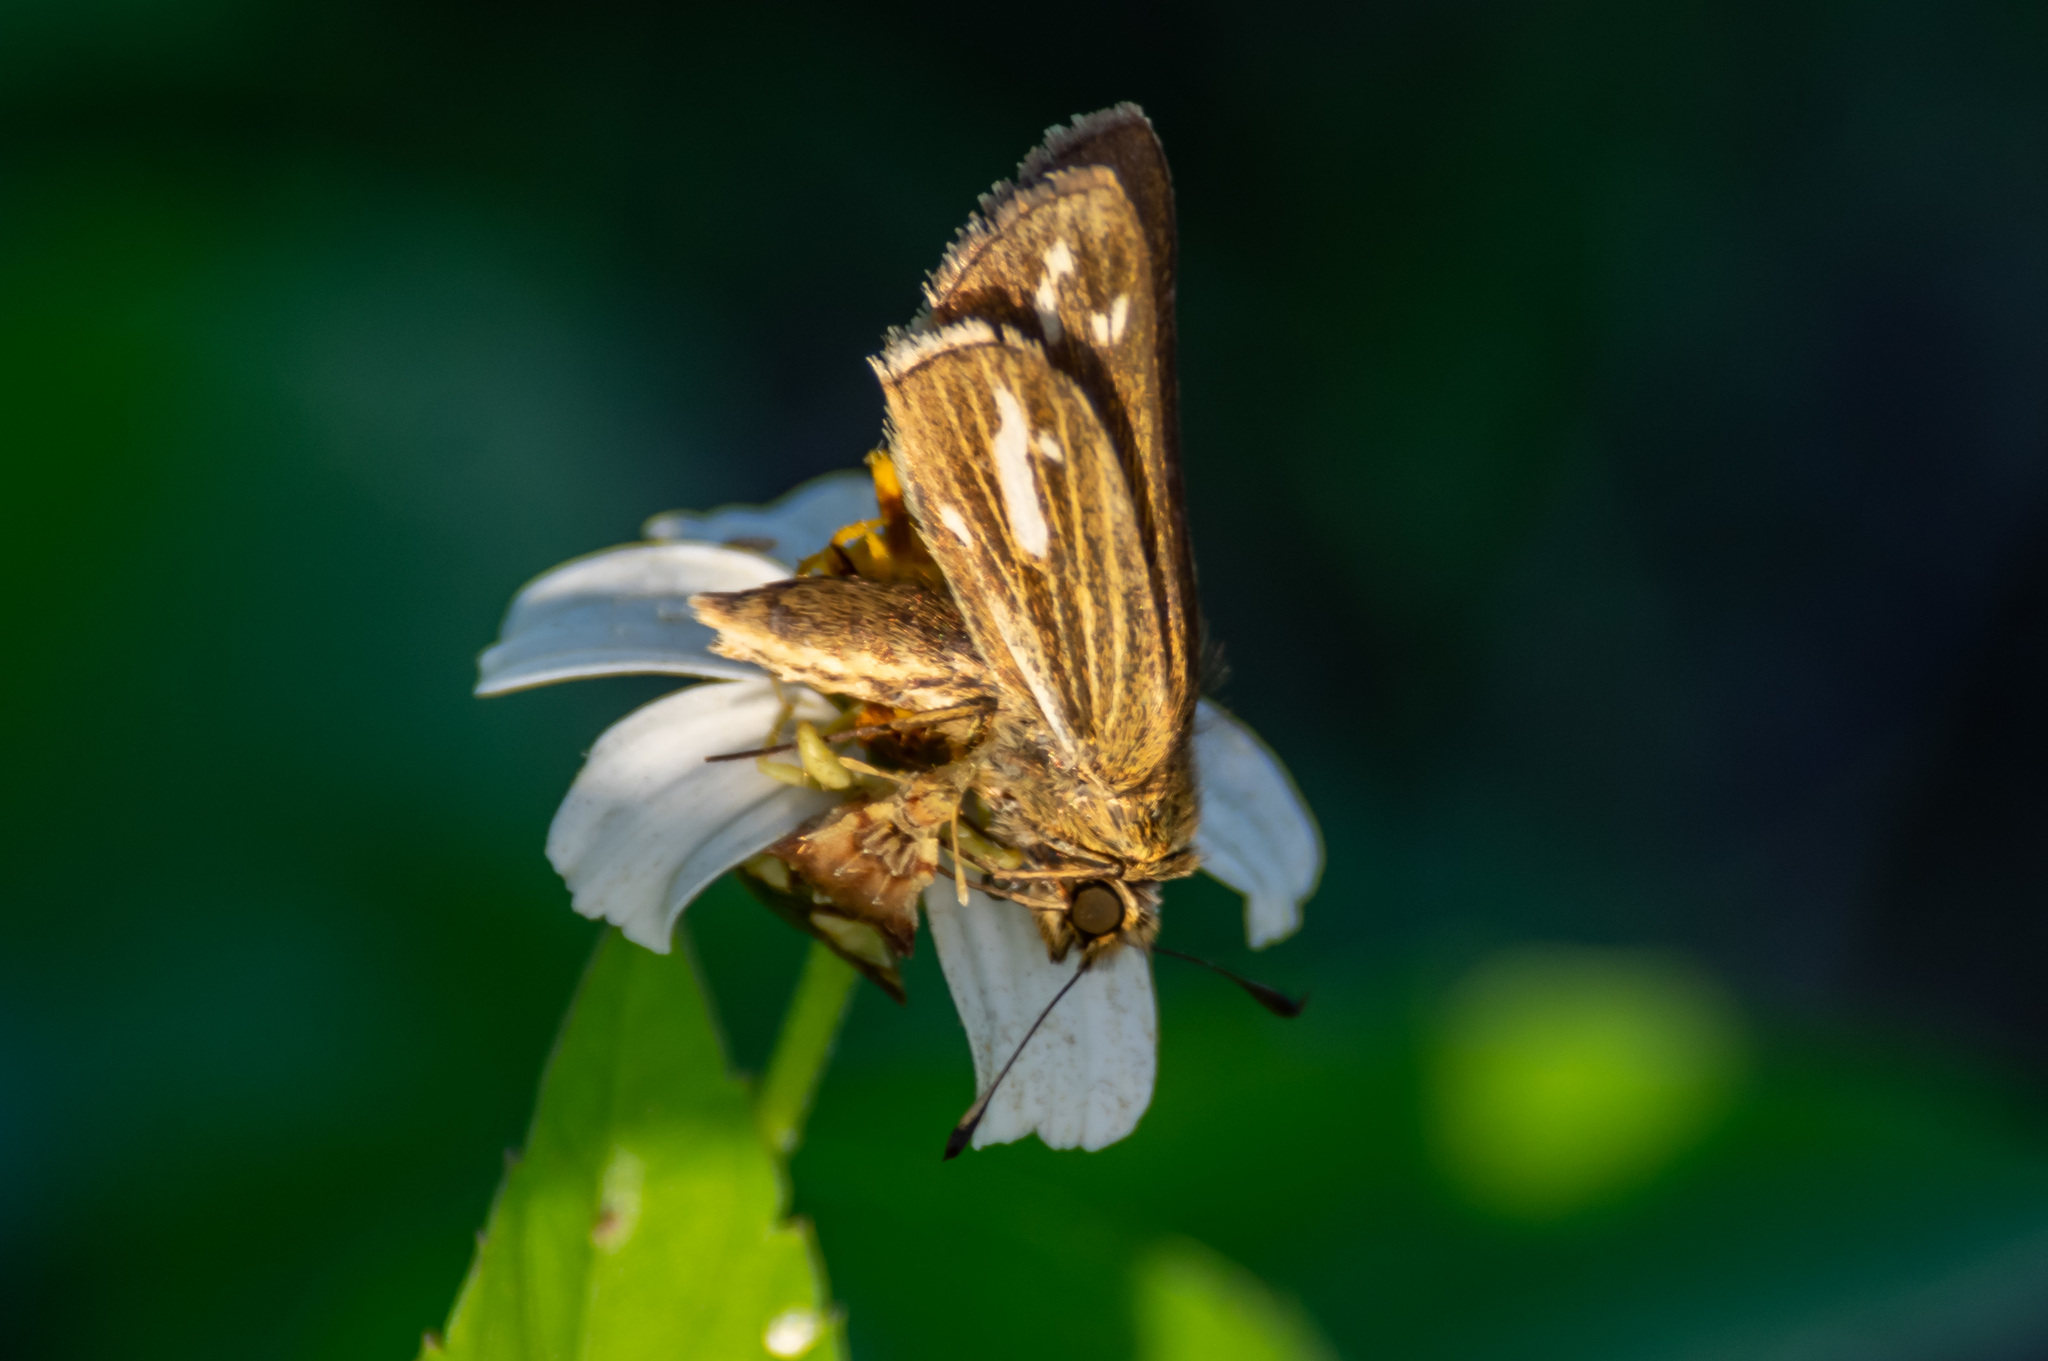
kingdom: Animalia
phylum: Arthropoda
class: Insecta
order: Lepidoptera
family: Hesperiidae
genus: Panoquina
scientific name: Panoquina panoquin
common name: Salt marsh skipper
